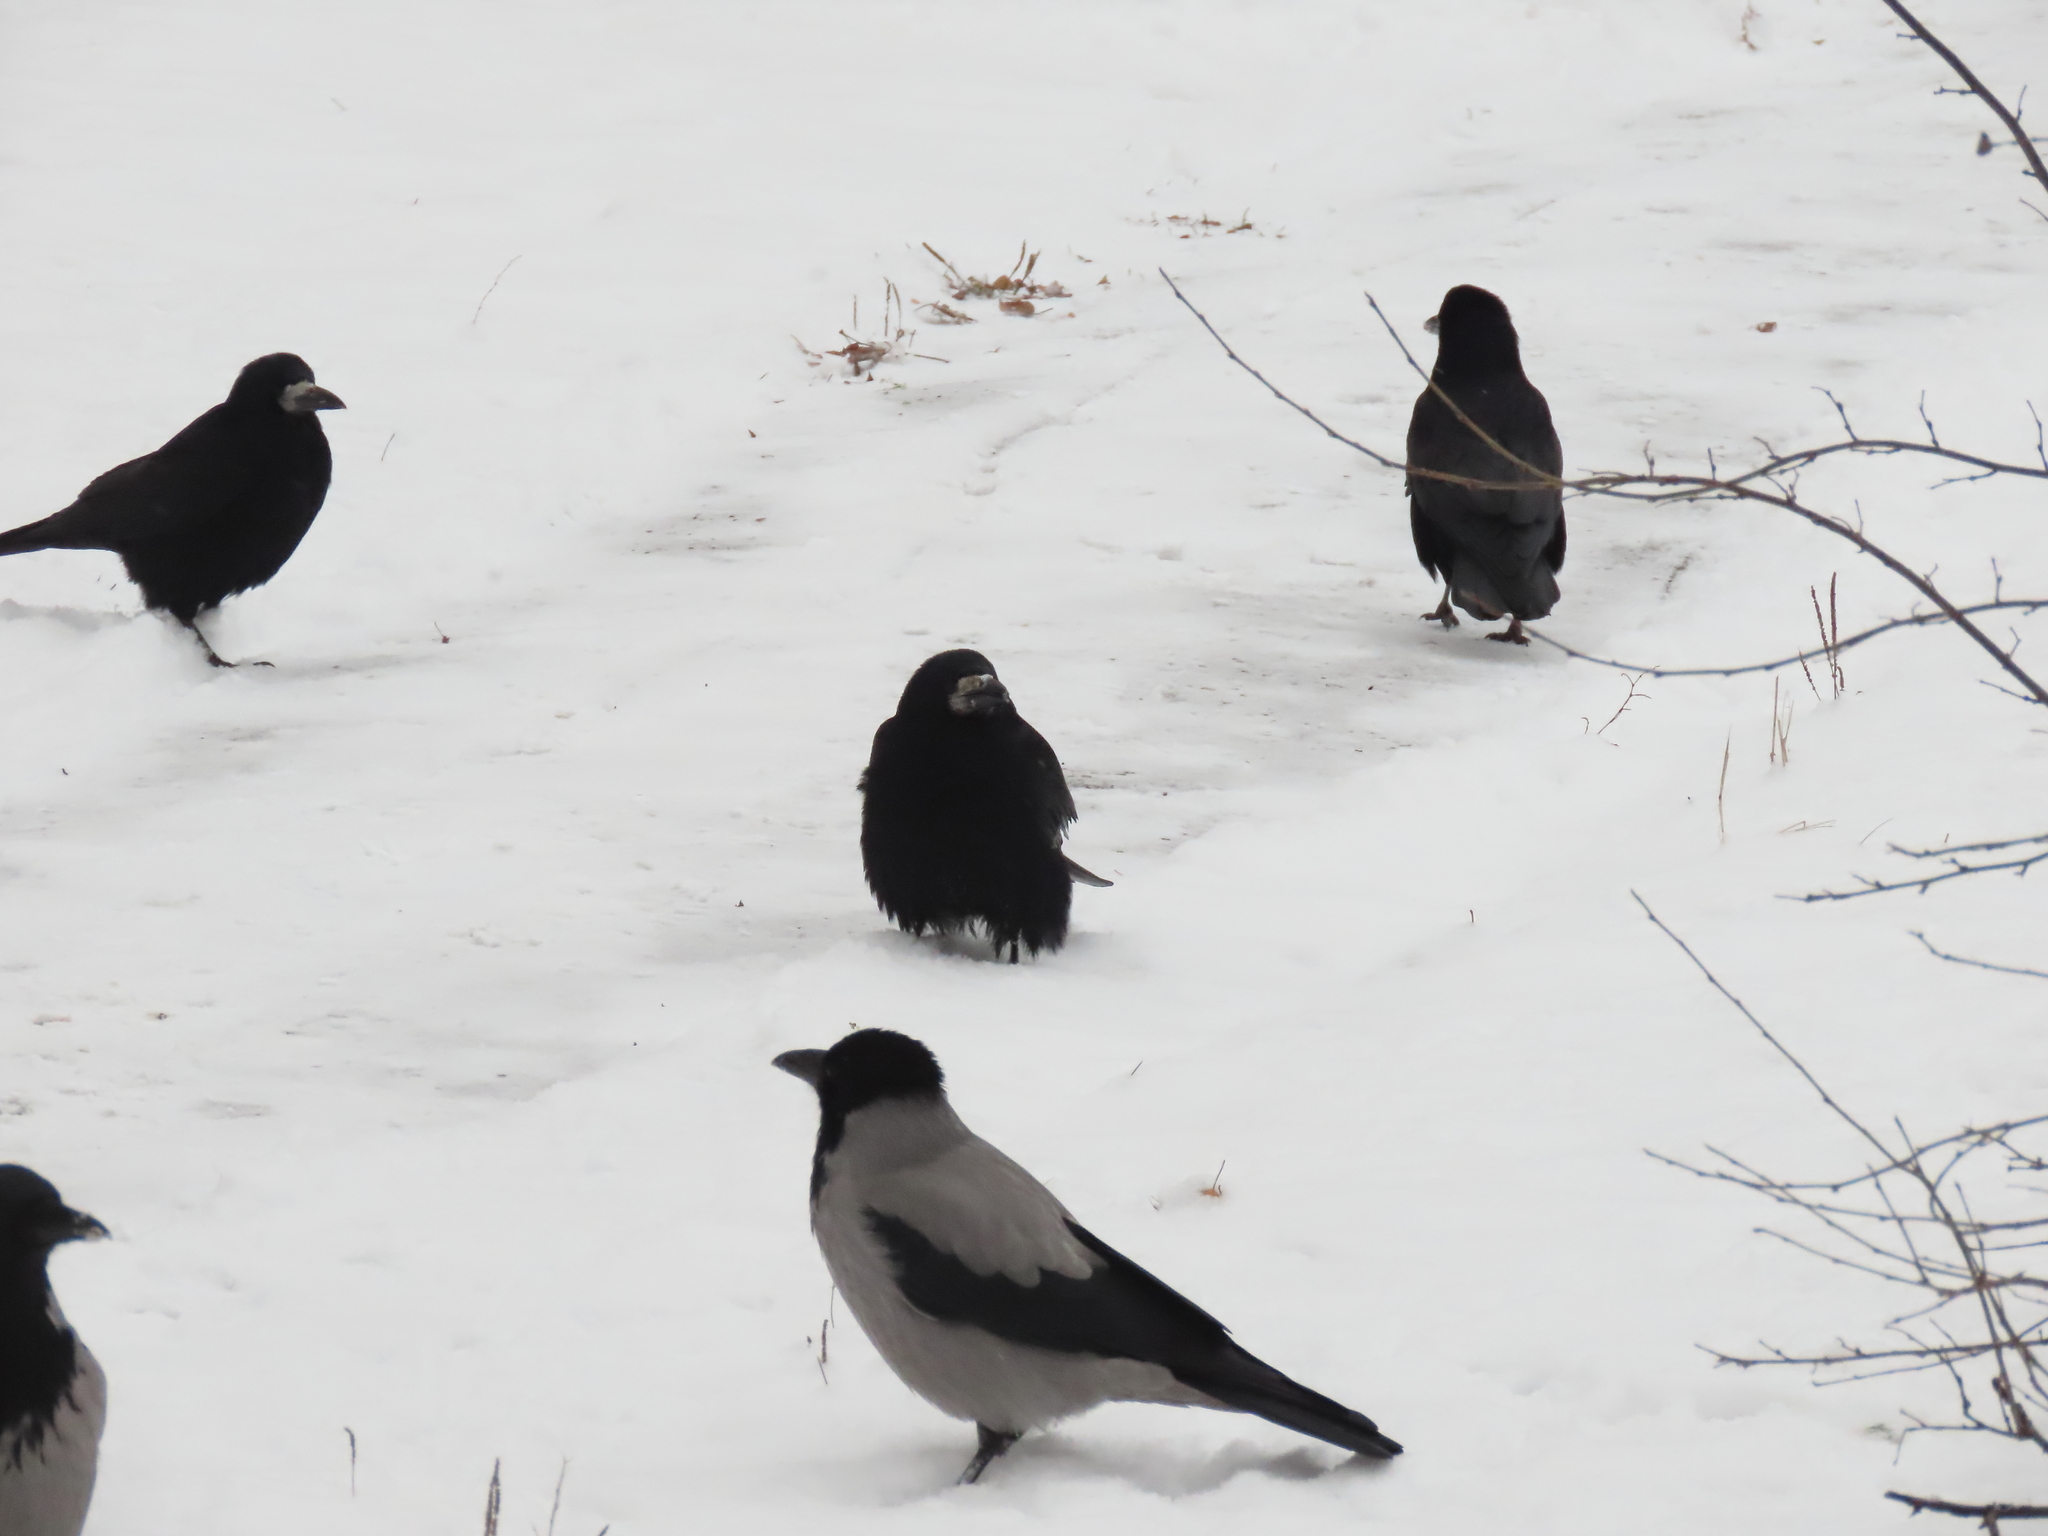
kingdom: Animalia
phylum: Chordata
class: Aves
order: Passeriformes
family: Corvidae
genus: Corvus
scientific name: Corvus frugilegus
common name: Rook
